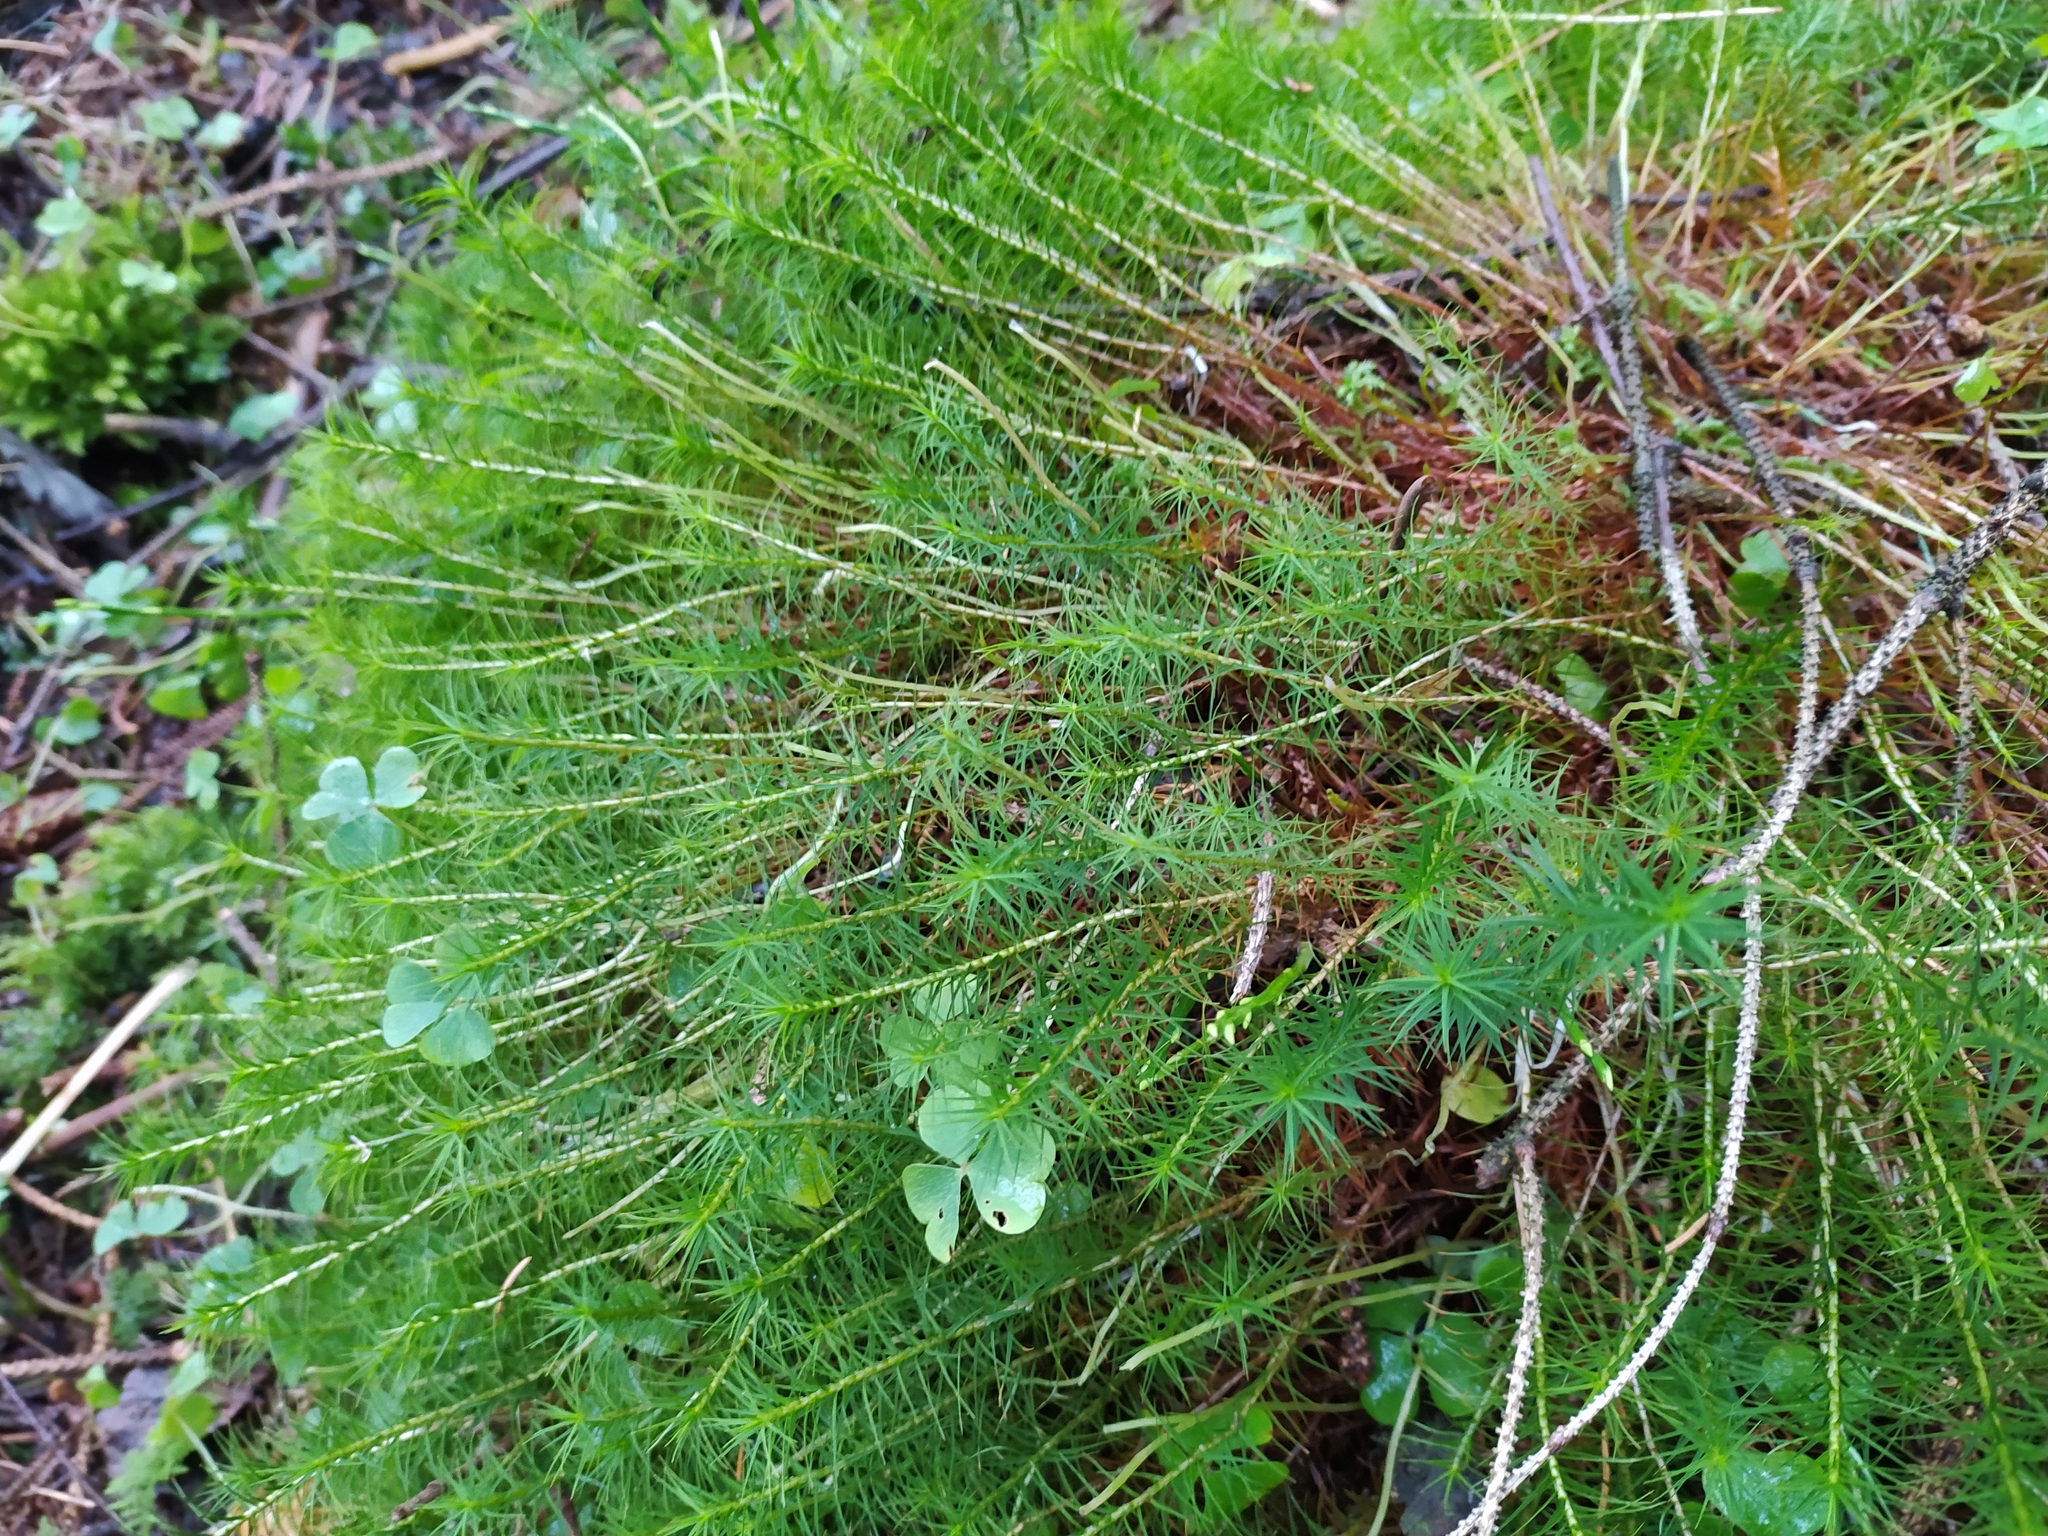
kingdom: Plantae
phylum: Bryophyta
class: Polytrichopsida
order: Polytrichales
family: Polytrichaceae
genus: Polytrichum
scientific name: Polytrichum commune
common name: Common haircap
